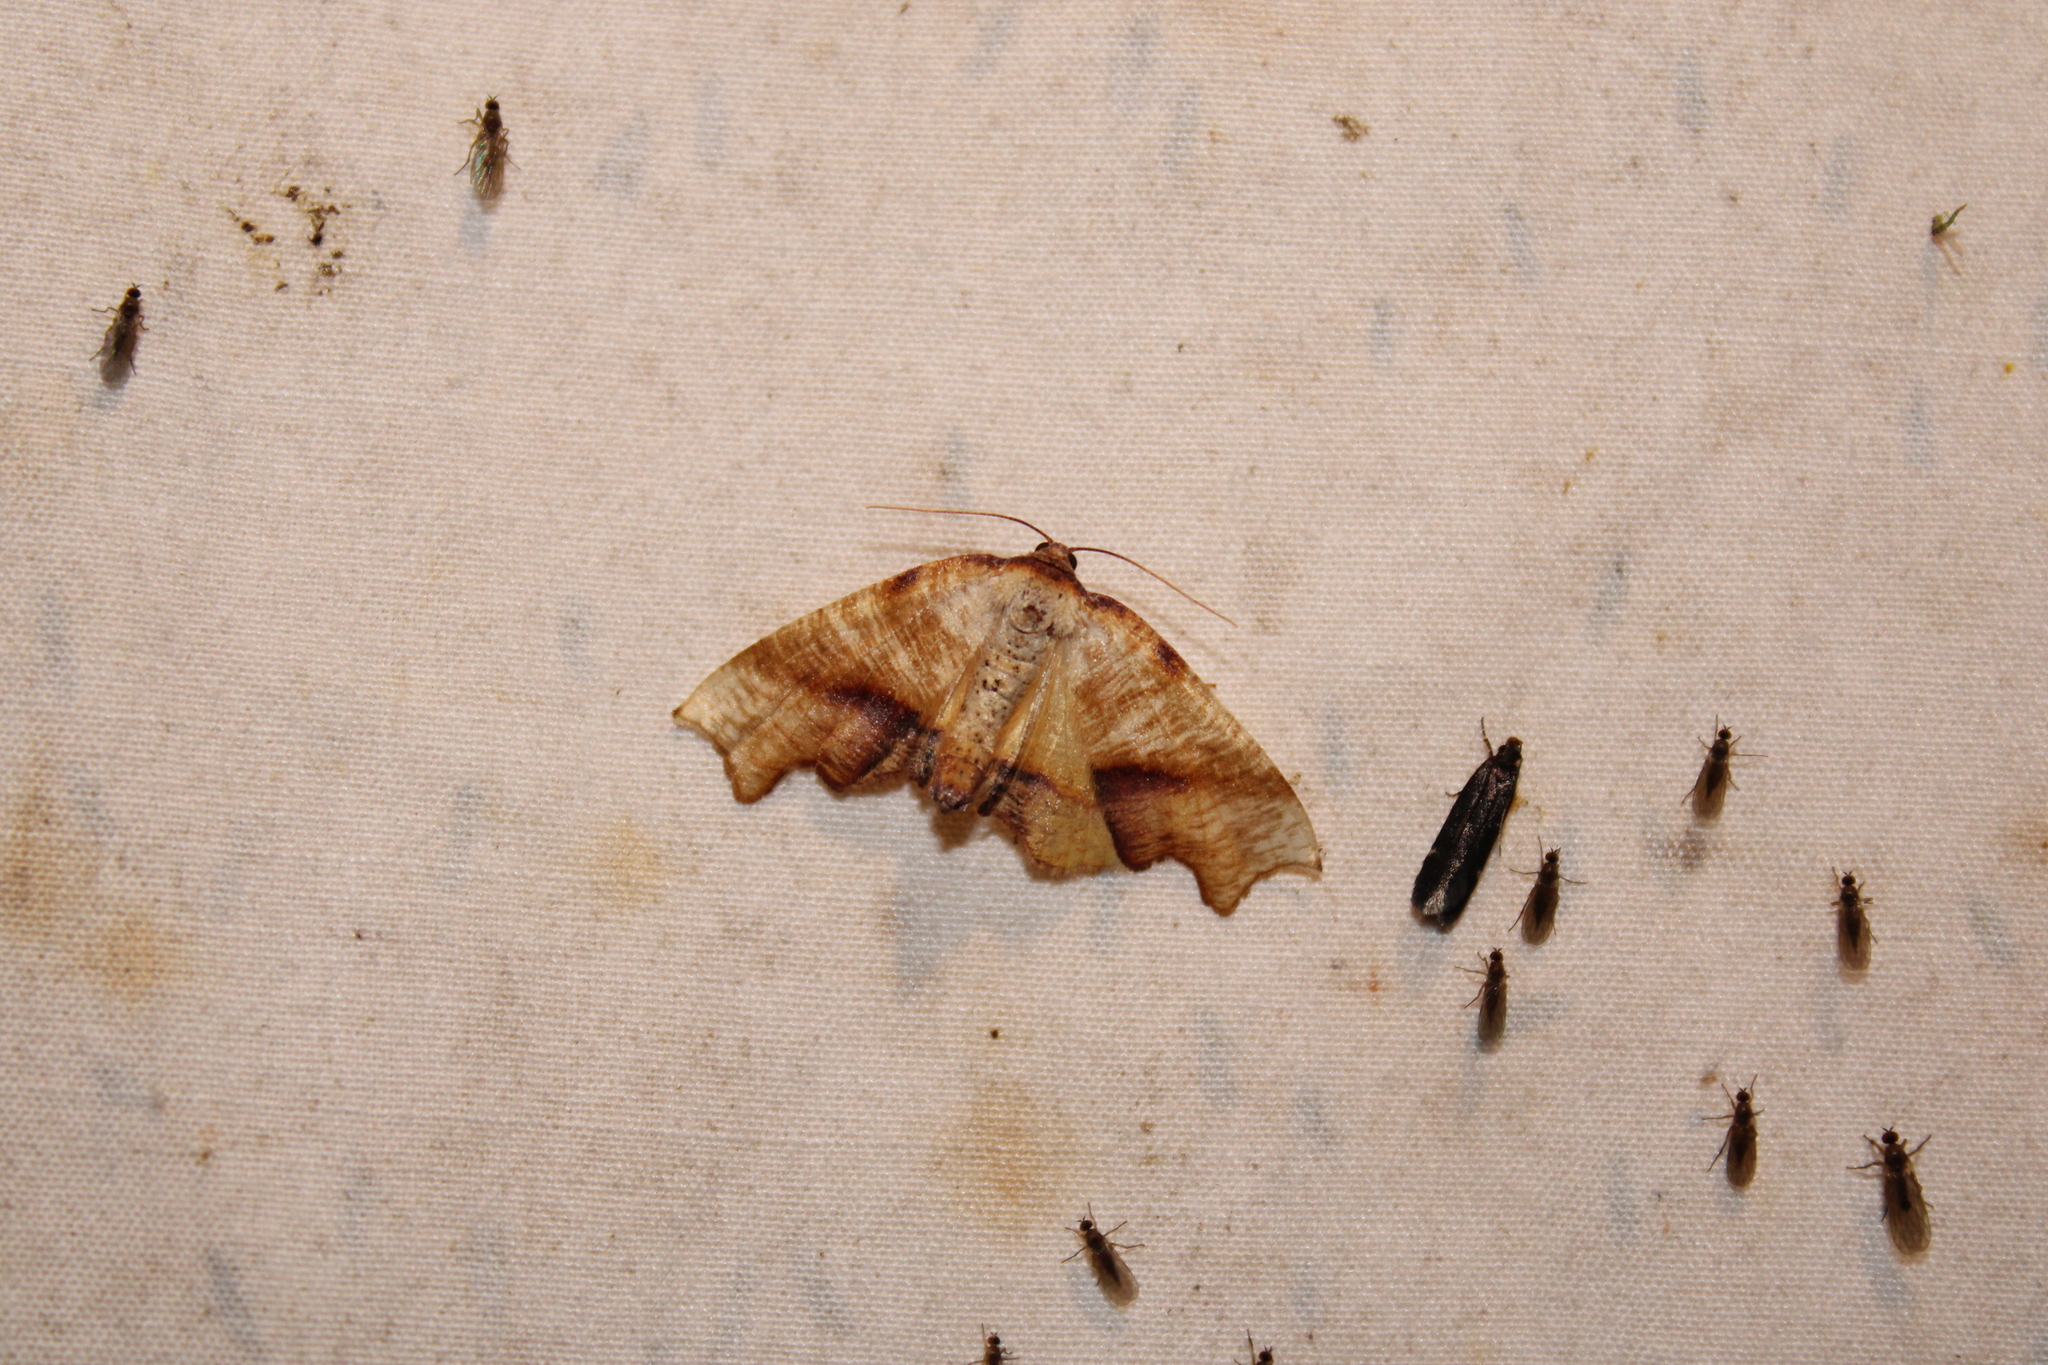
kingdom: Animalia
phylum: Arthropoda
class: Insecta
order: Lepidoptera
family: Geometridae
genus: Plagodis
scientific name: Plagodis fervidaria
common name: Fervid plagodis
